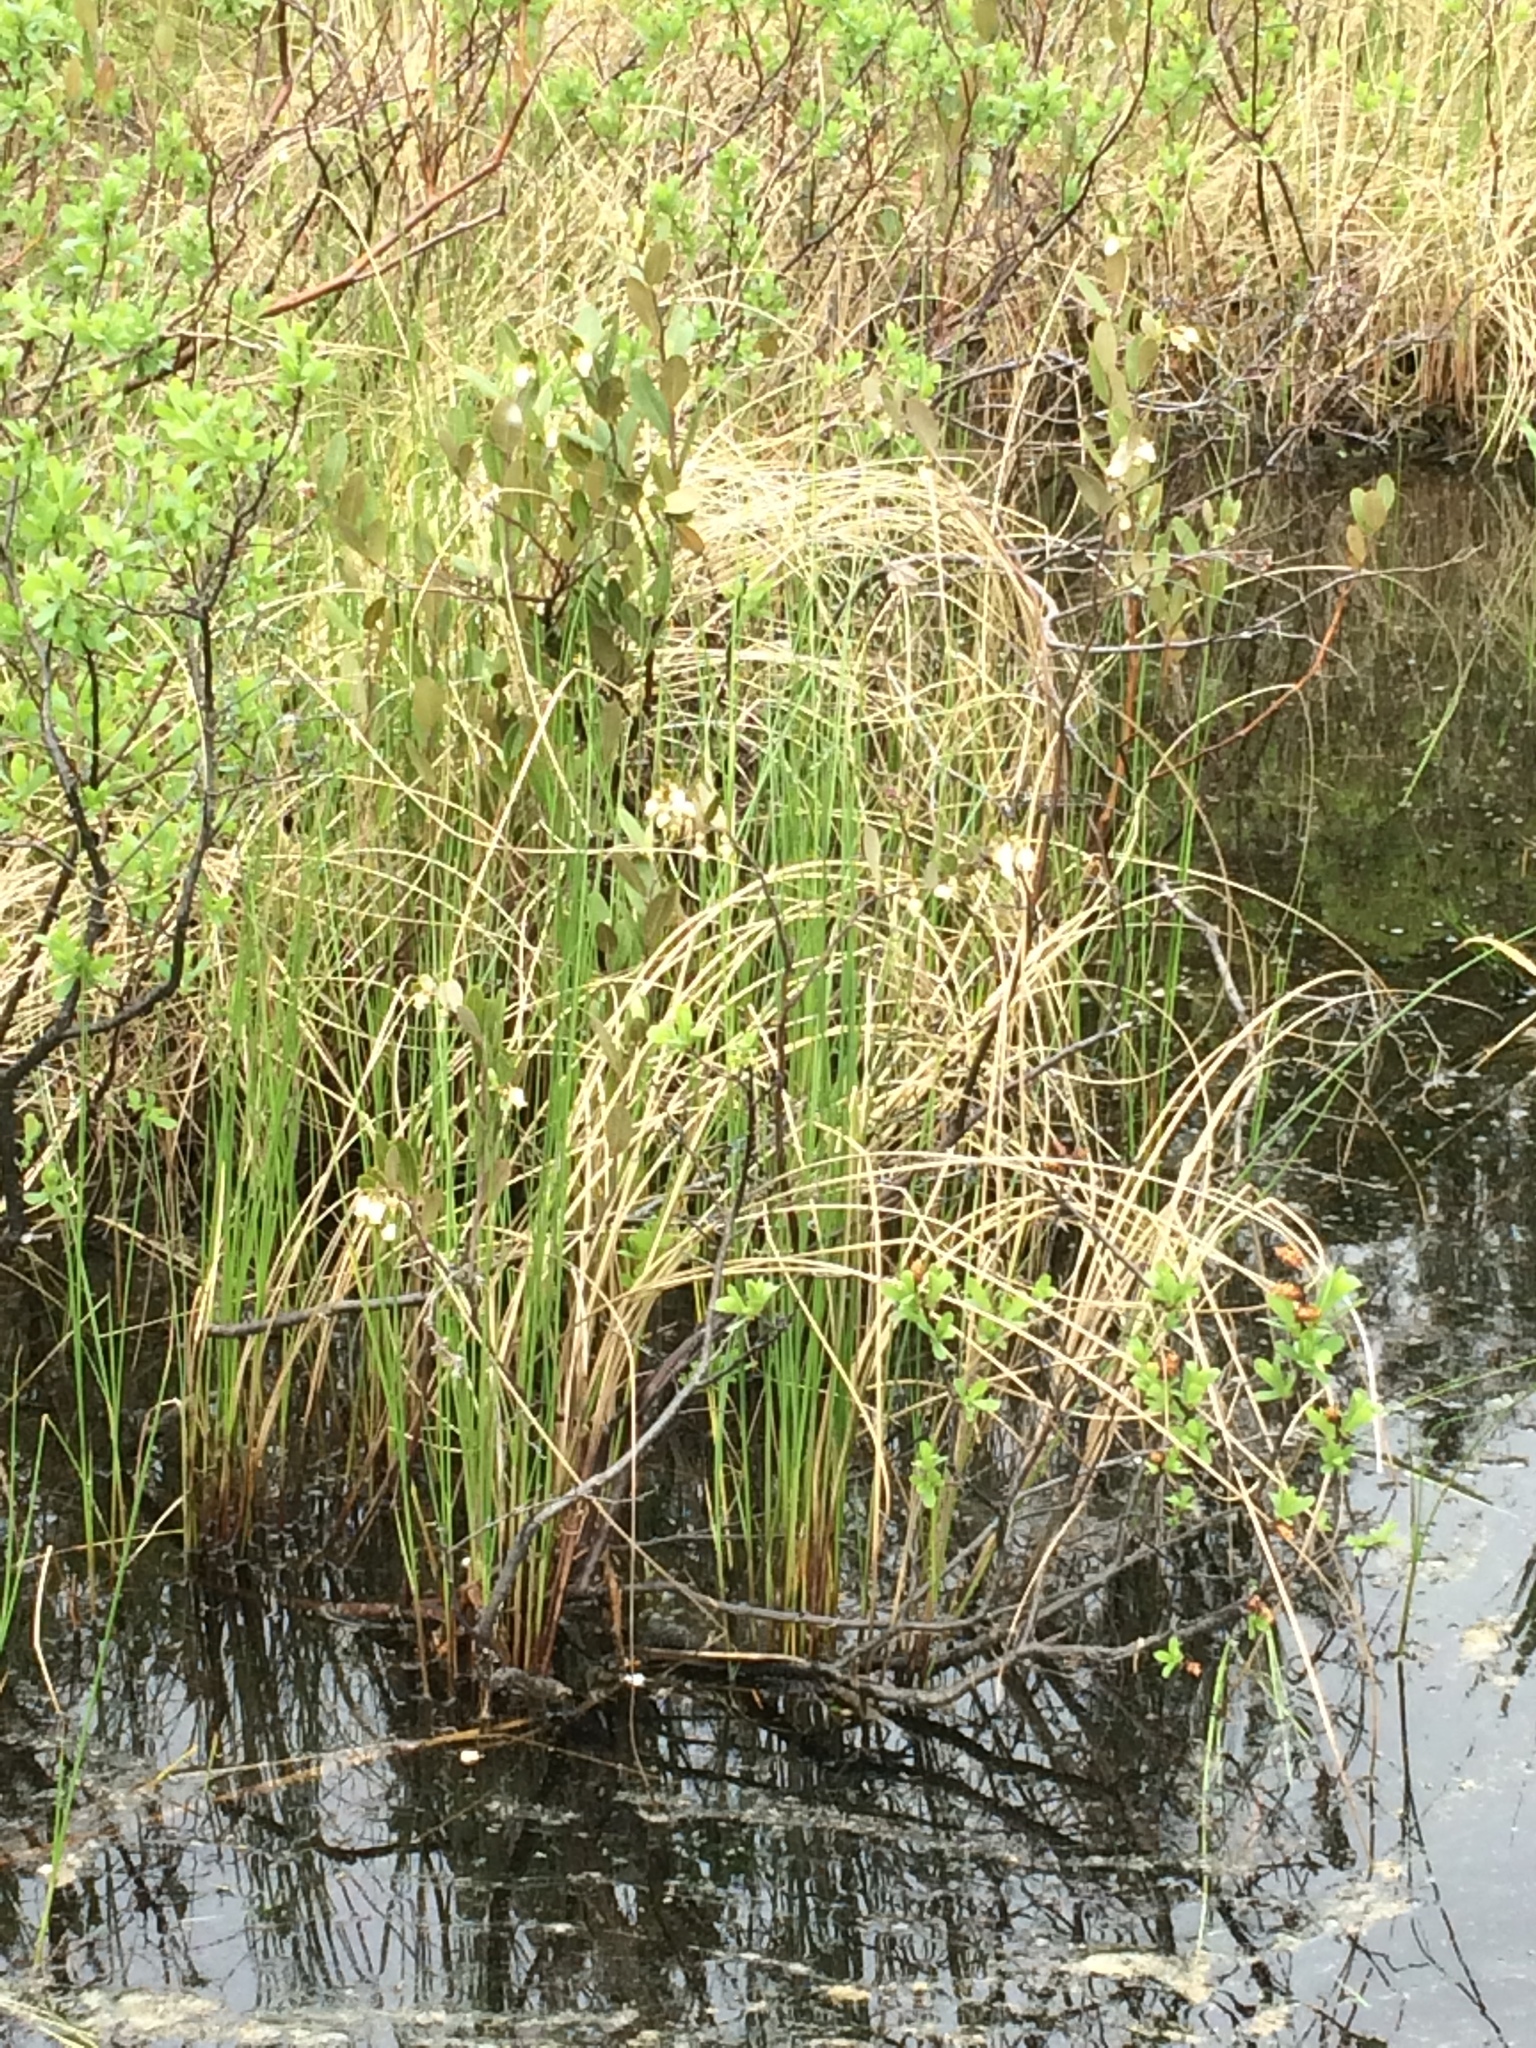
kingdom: Plantae
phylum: Tracheophyta
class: Magnoliopsida
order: Ericales
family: Ericaceae
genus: Chamaedaphne
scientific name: Chamaedaphne calyculata
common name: Leatherleaf
